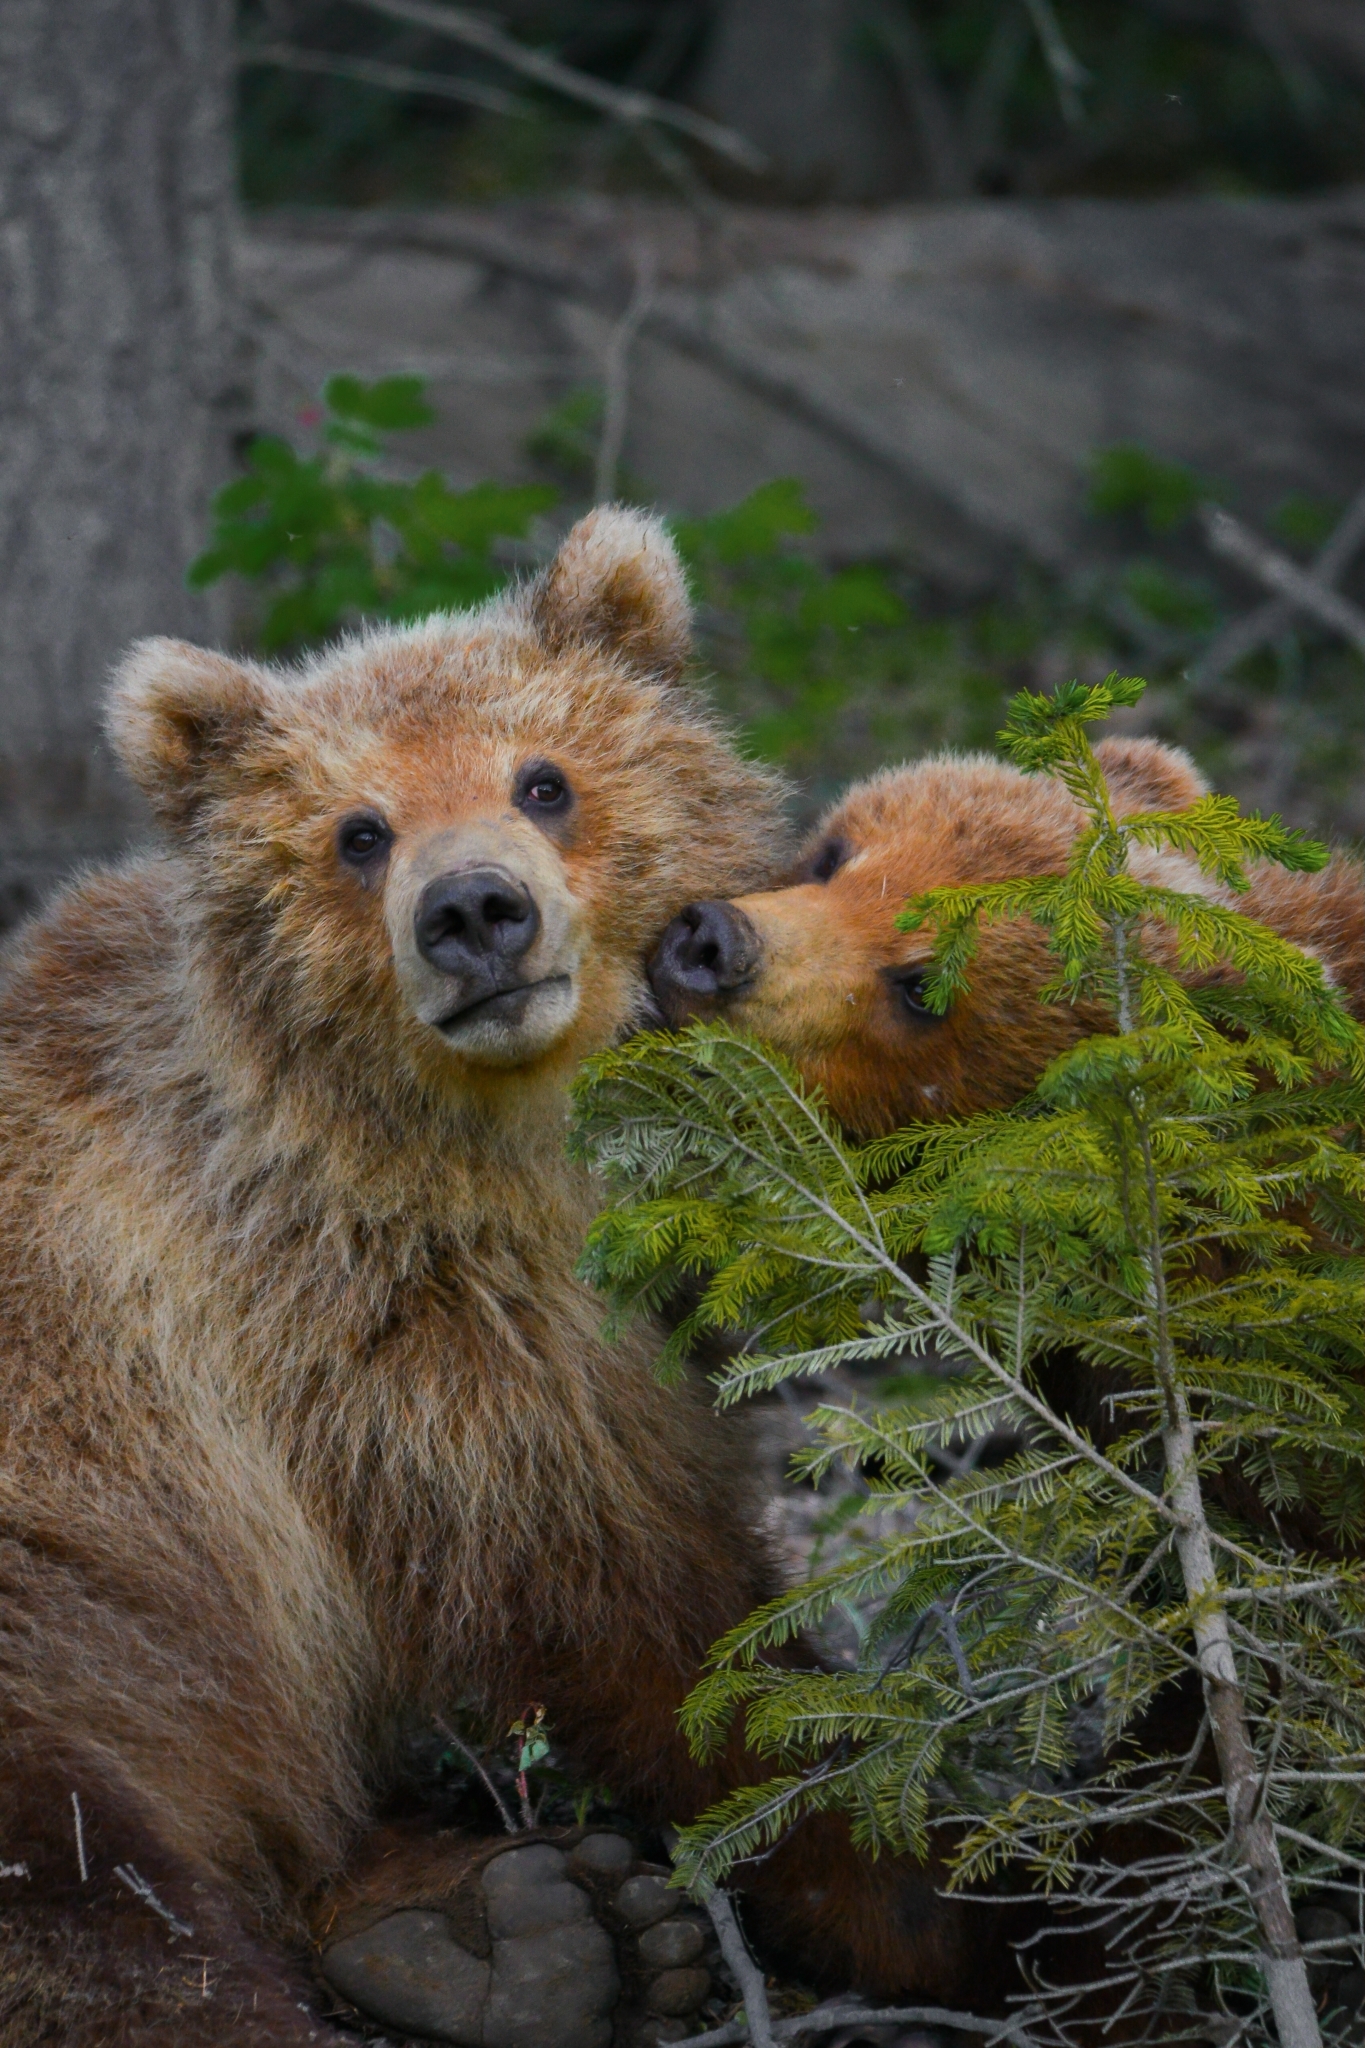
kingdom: Animalia
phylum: Chordata
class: Mammalia
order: Carnivora
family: Ursidae
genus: Ursus
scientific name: Ursus arctos
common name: Brown bear
